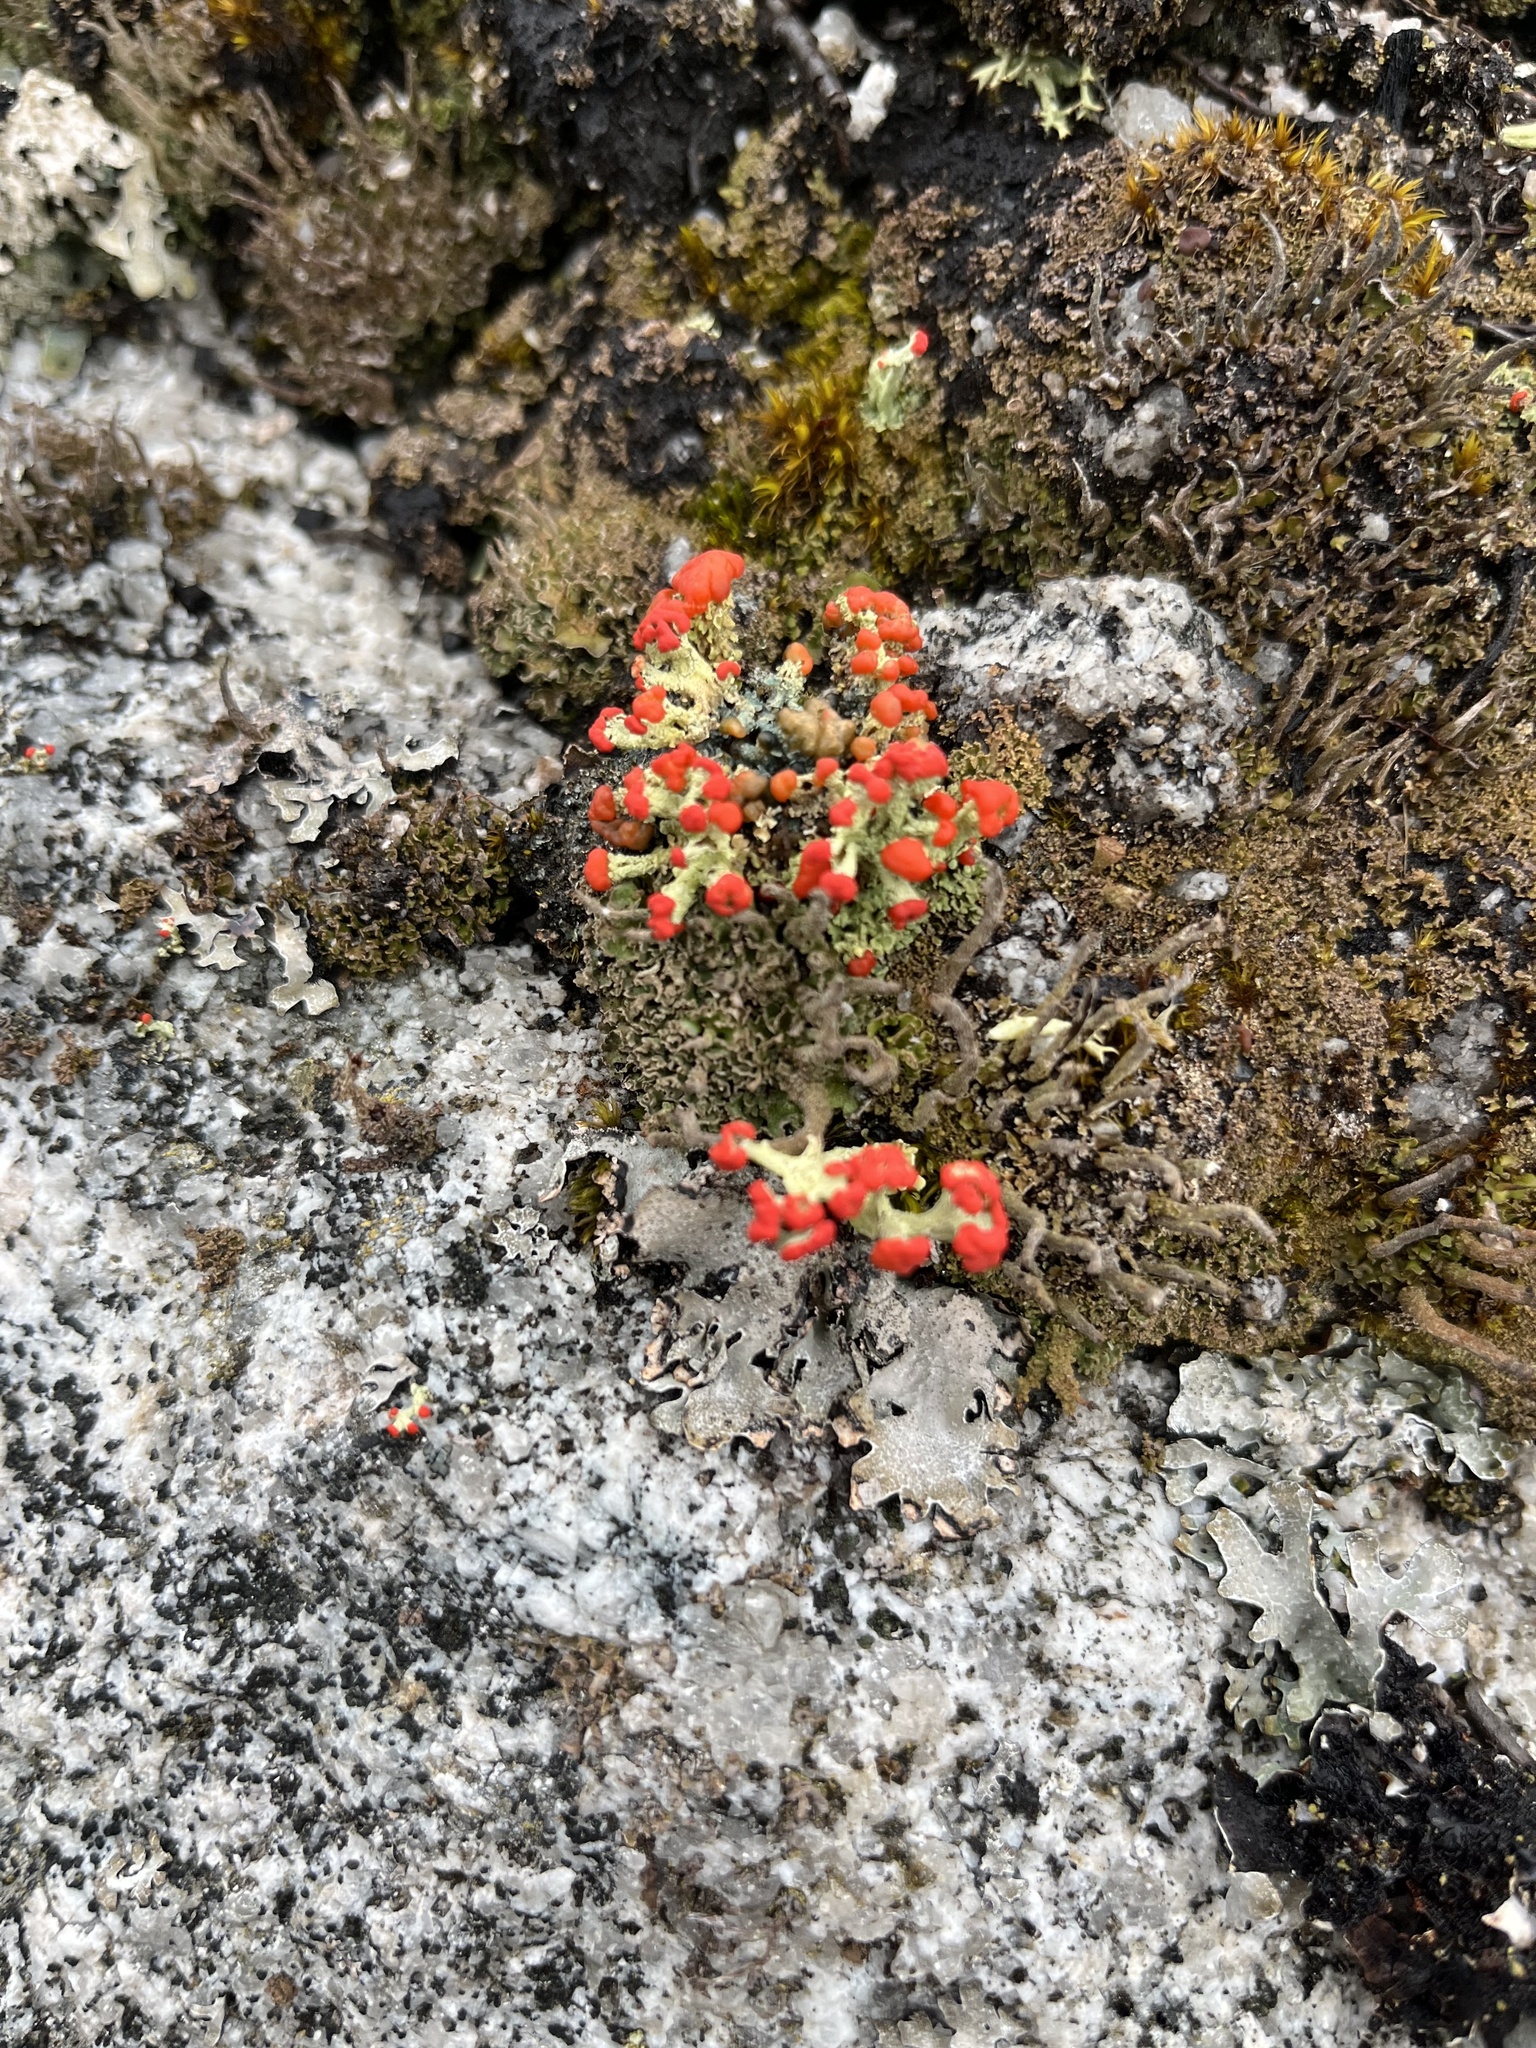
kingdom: Fungi
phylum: Ascomycota
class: Lecanoromycetes
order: Lecanorales
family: Cladoniaceae
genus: Cladonia
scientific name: Cladonia cristatella
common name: British soldier lichen
